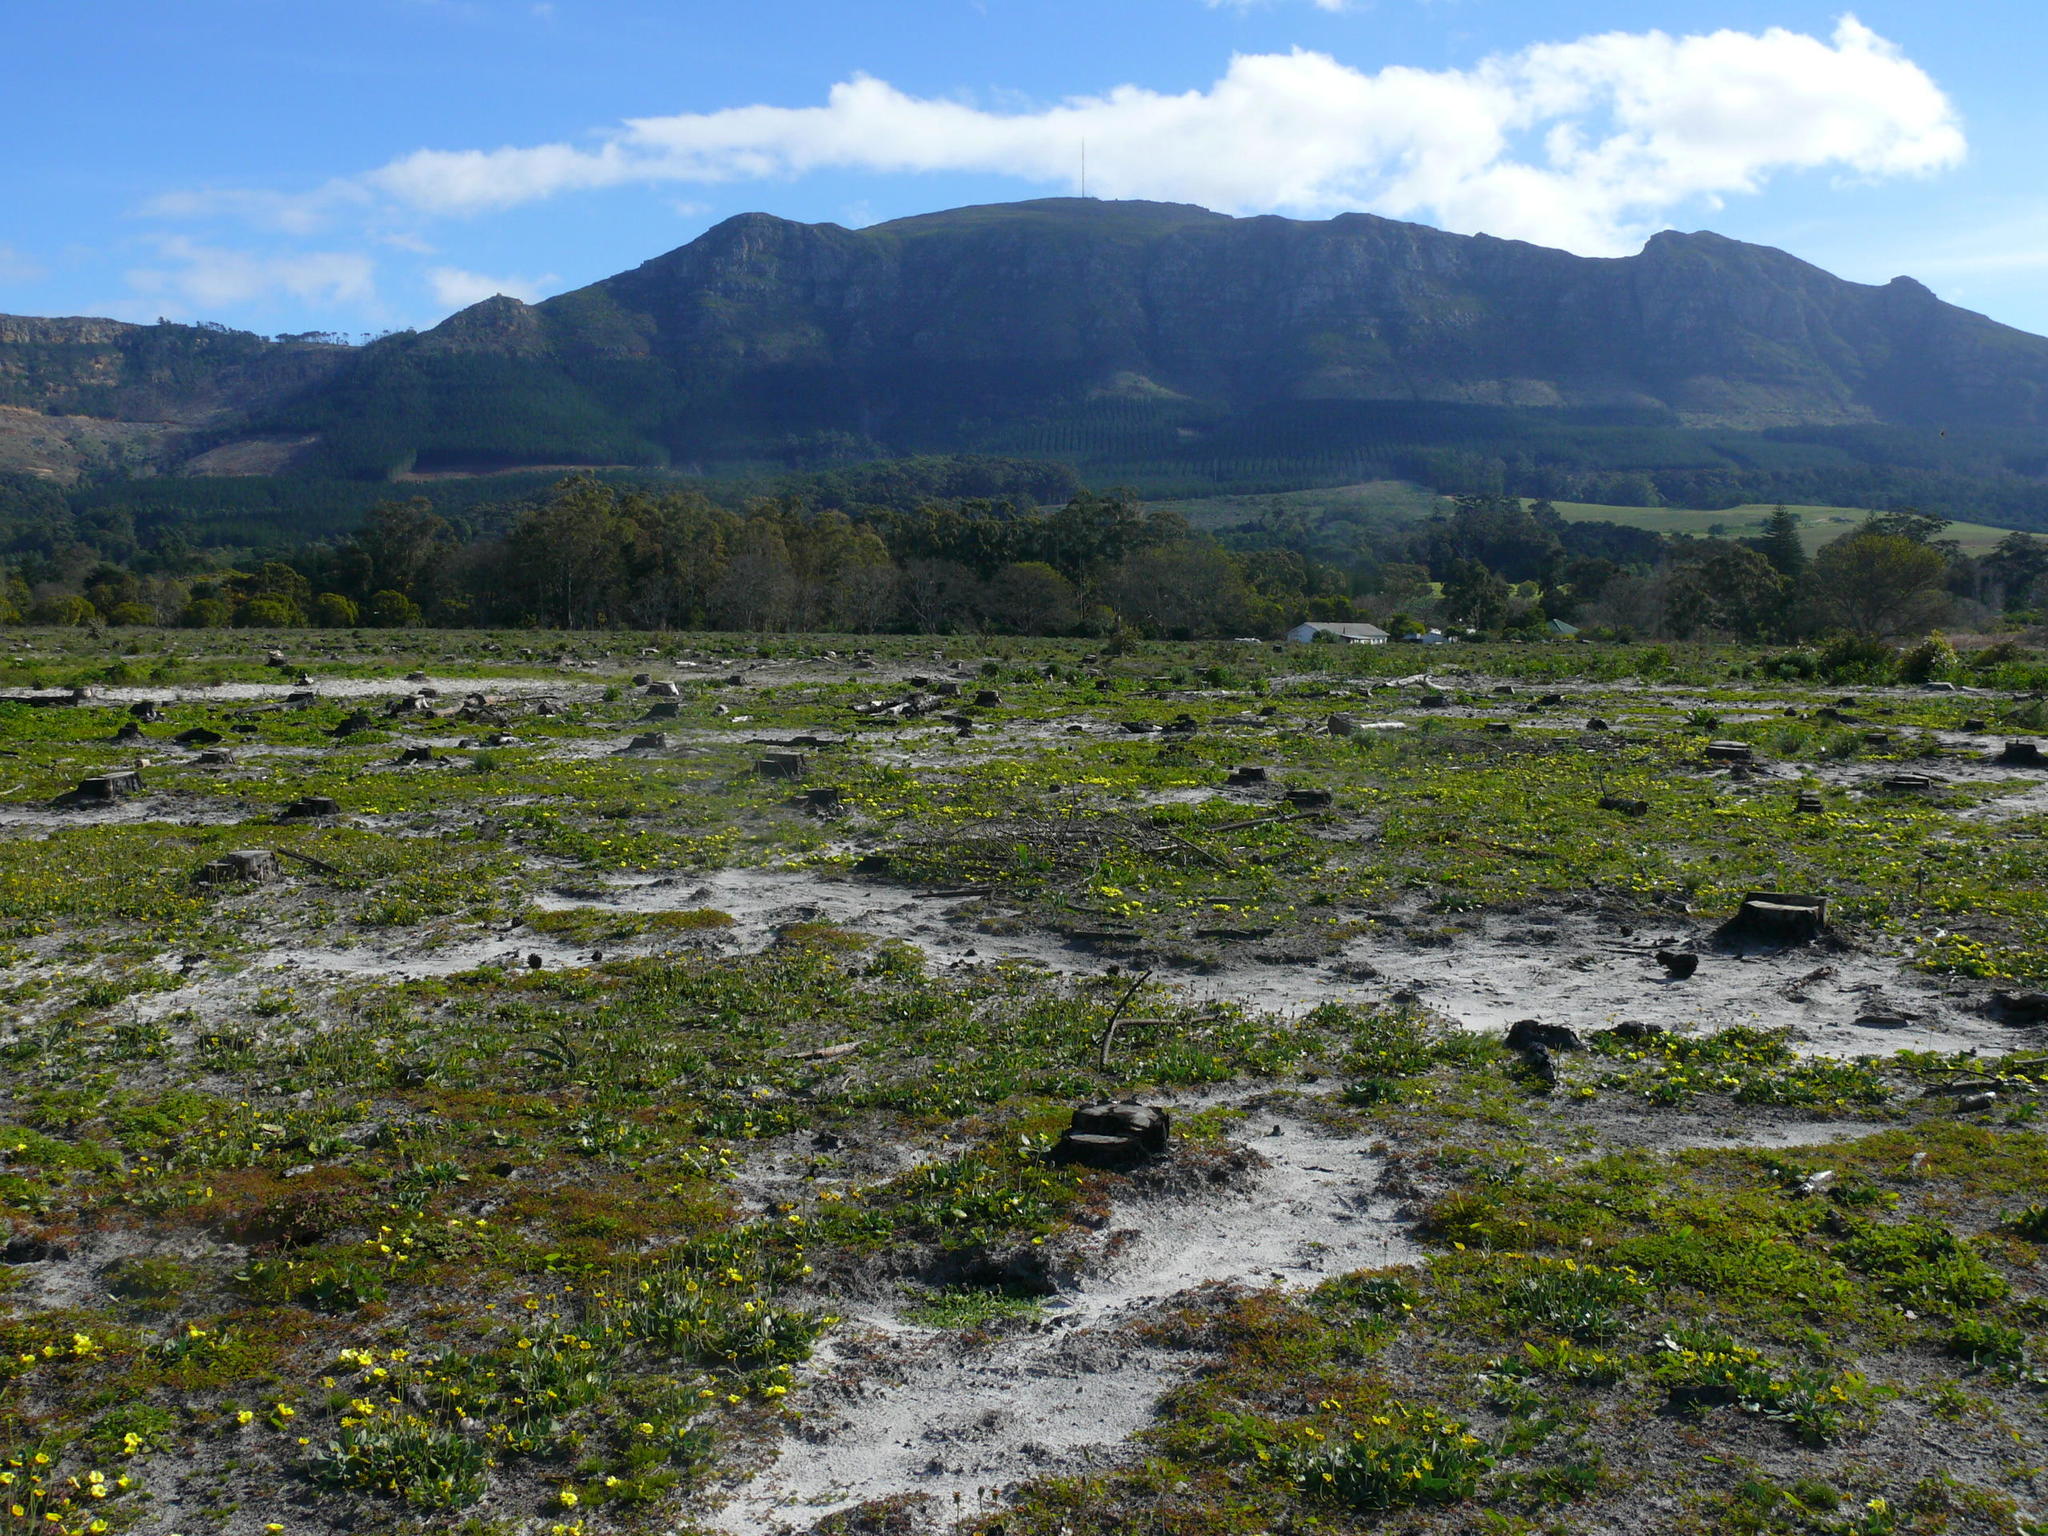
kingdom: Plantae
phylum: Tracheophyta
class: Magnoliopsida
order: Oxalidales
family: Oxalidaceae
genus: Oxalis
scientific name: Oxalis luteola
